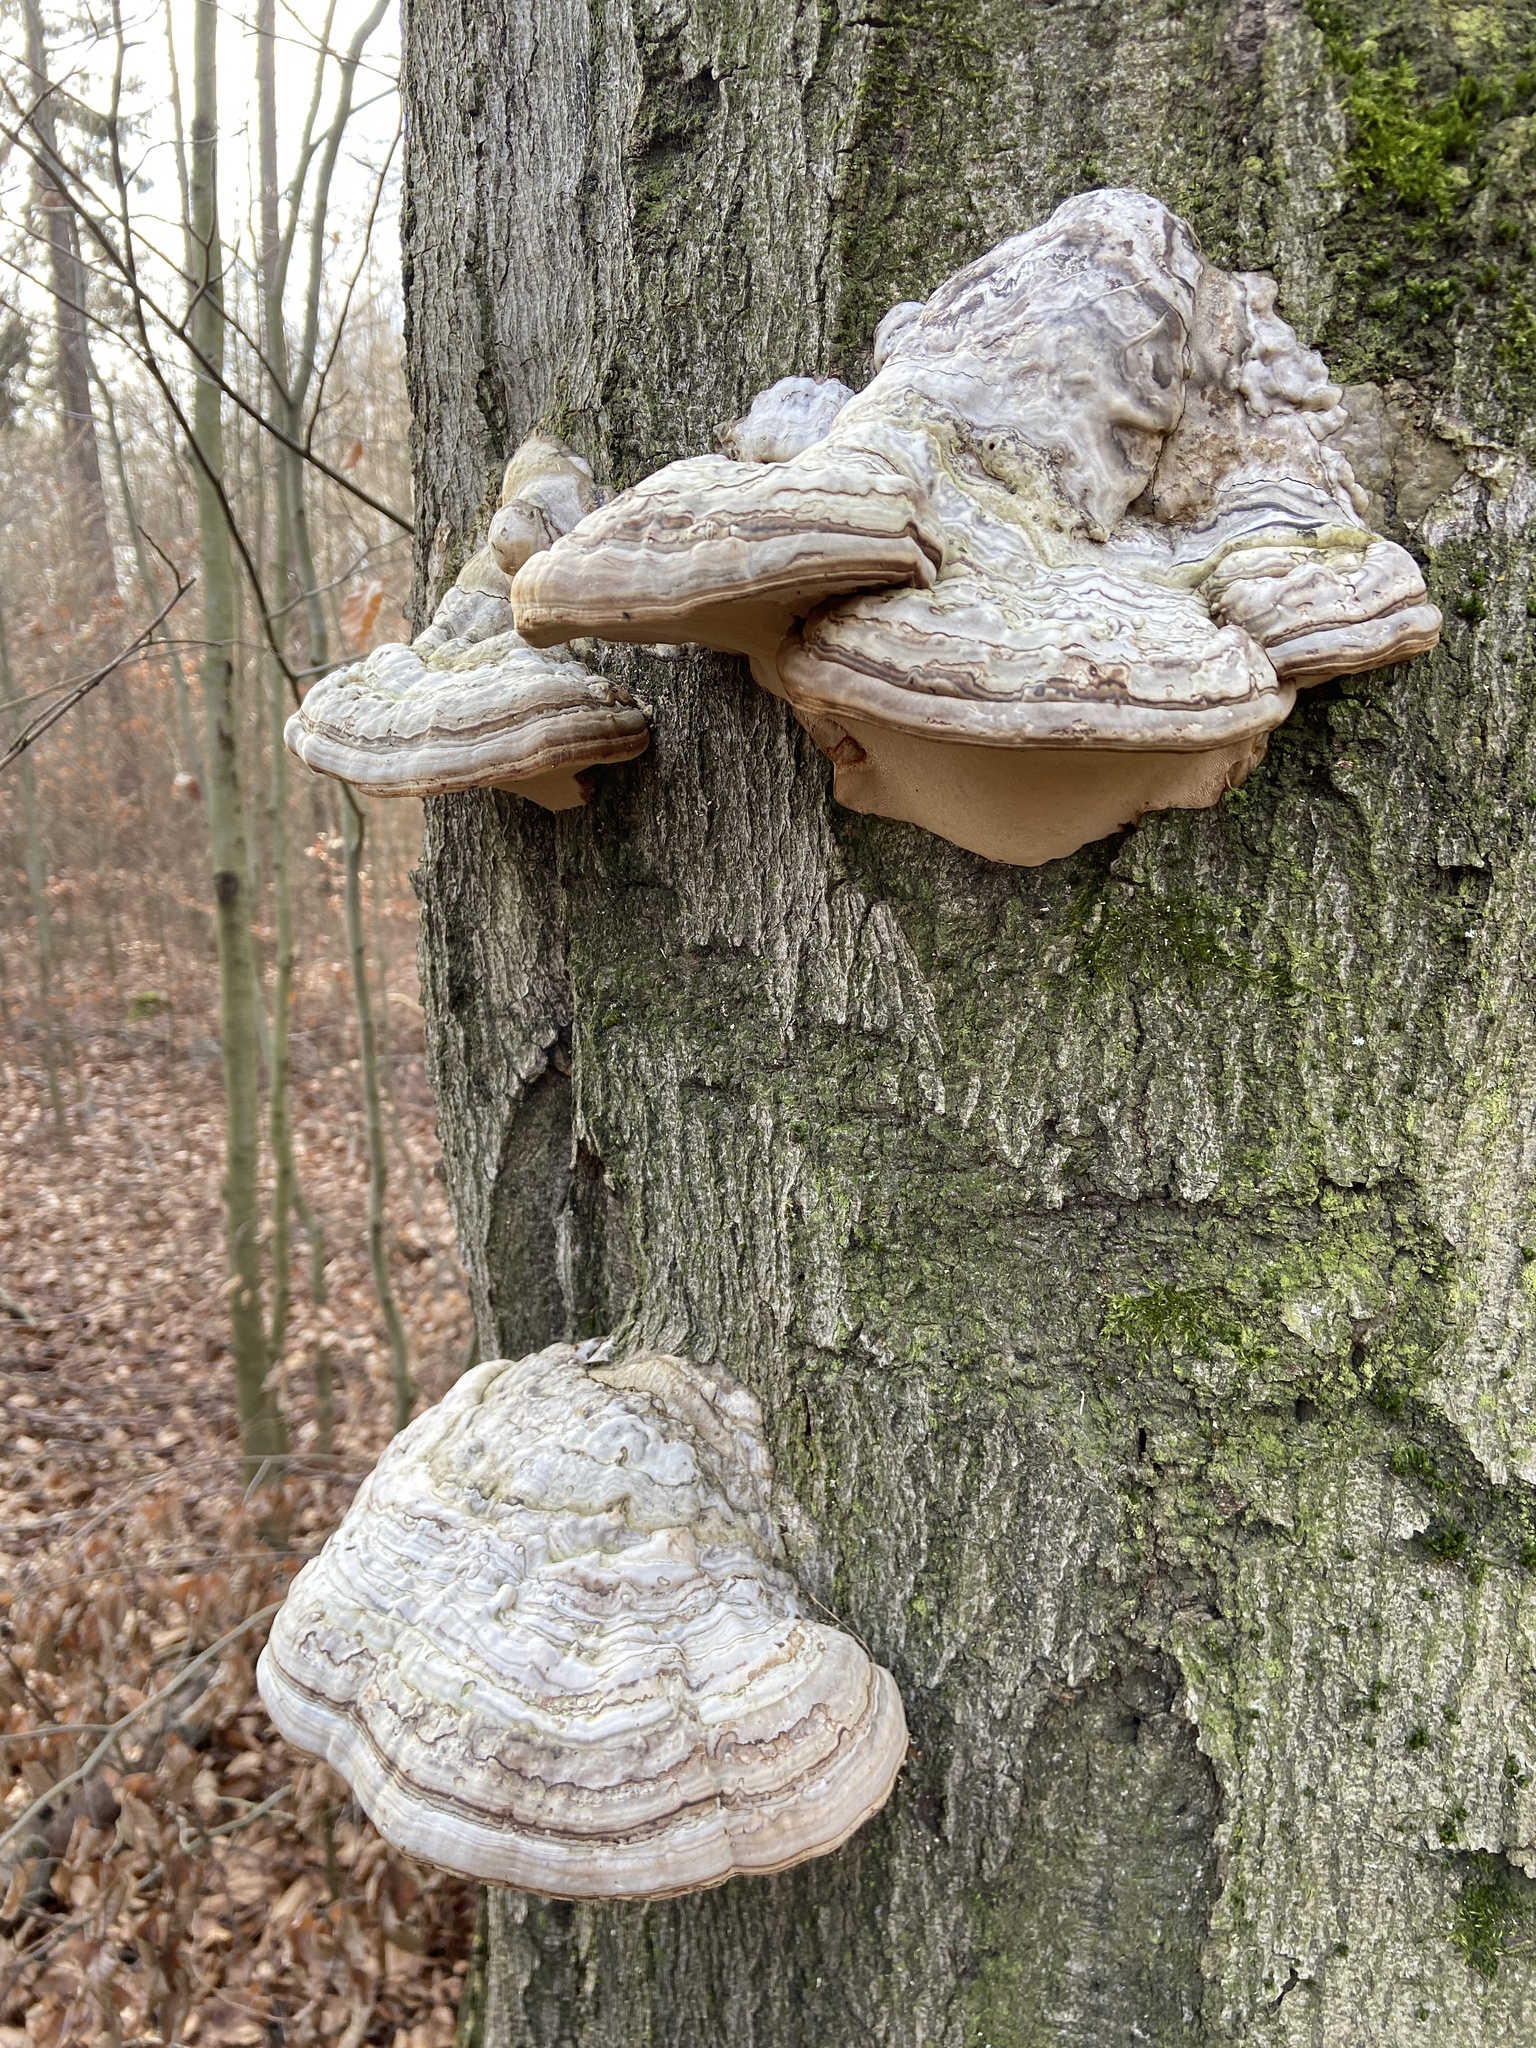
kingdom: Fungi
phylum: Basidiomycota
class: Agaricomycetes
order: Polyporales
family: Polyporaceae
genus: Fomes
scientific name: Fomes fomentarius
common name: Hoof fungus
